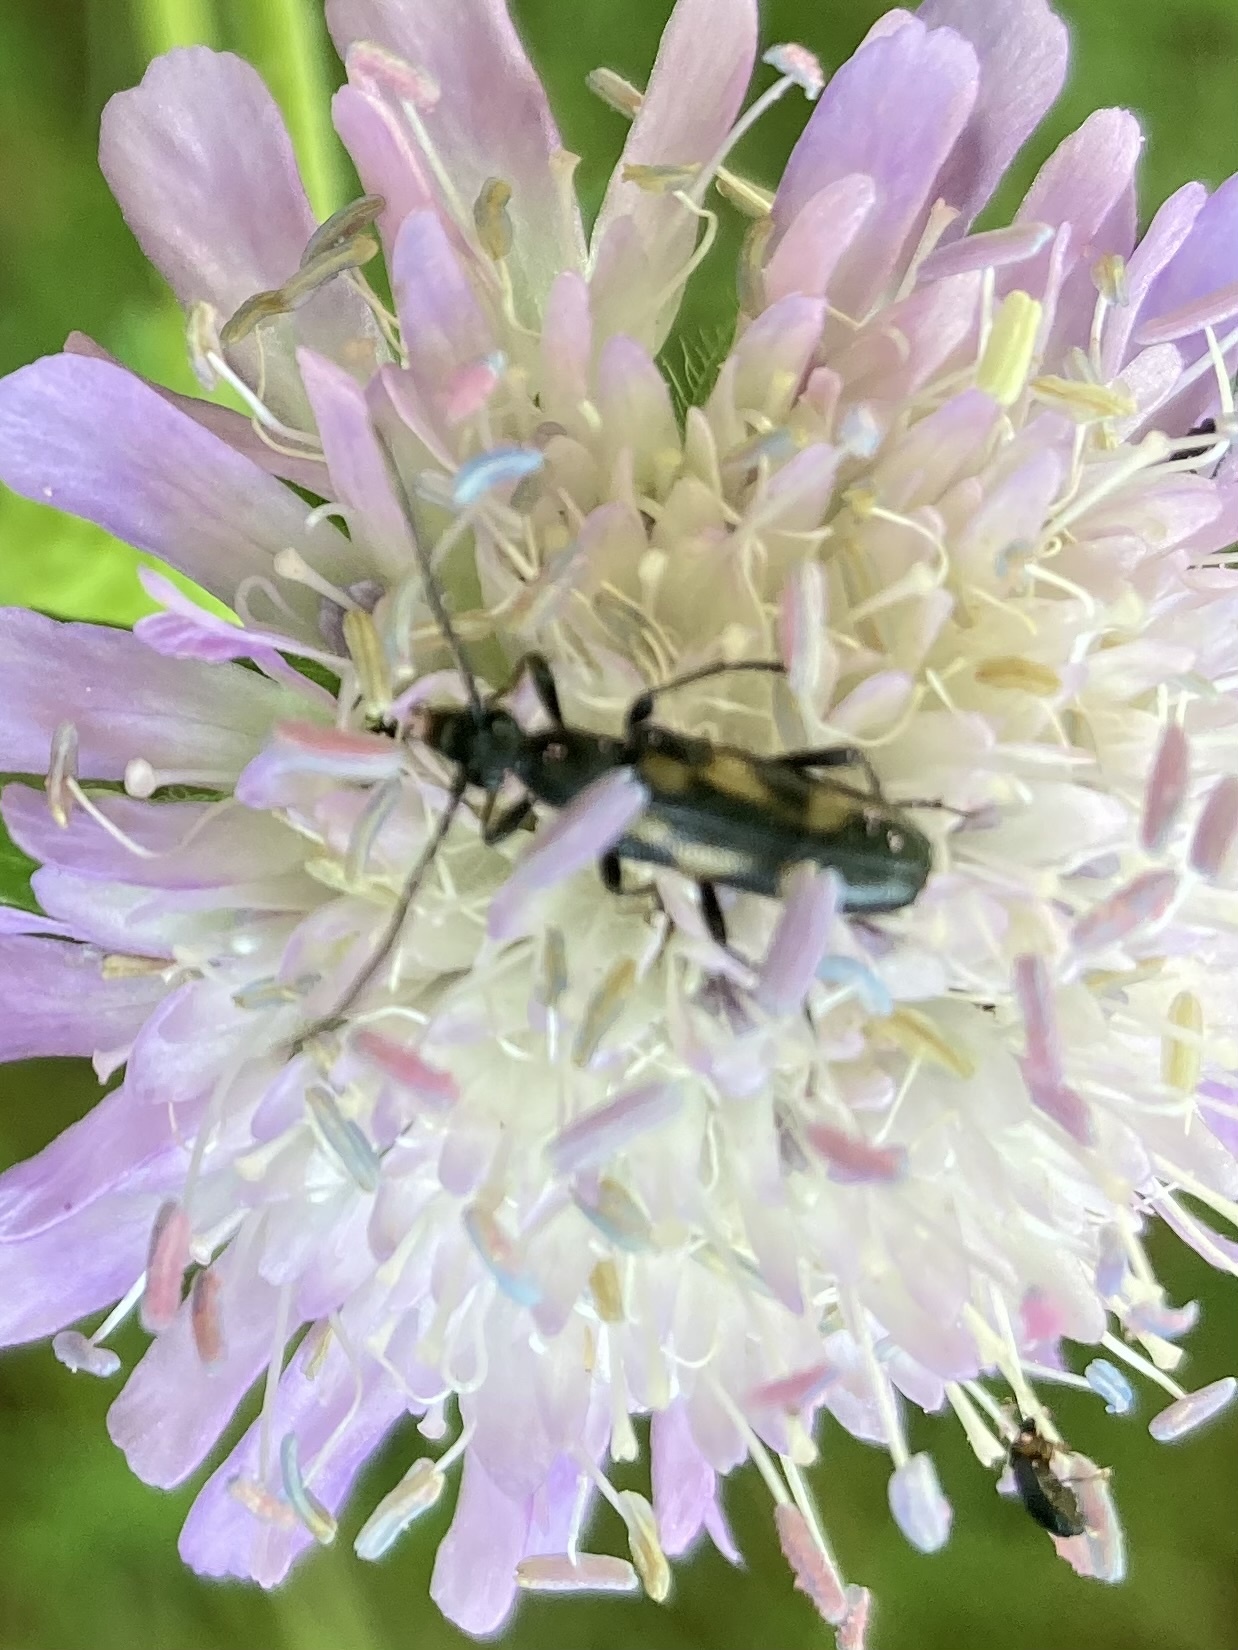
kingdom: Animalia
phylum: Arthropoda
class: Insecta
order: Coleoptera
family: Cerambycidae
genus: Anoplodera
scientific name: Anoplodera sexguttata
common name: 6 spotted longhorn
